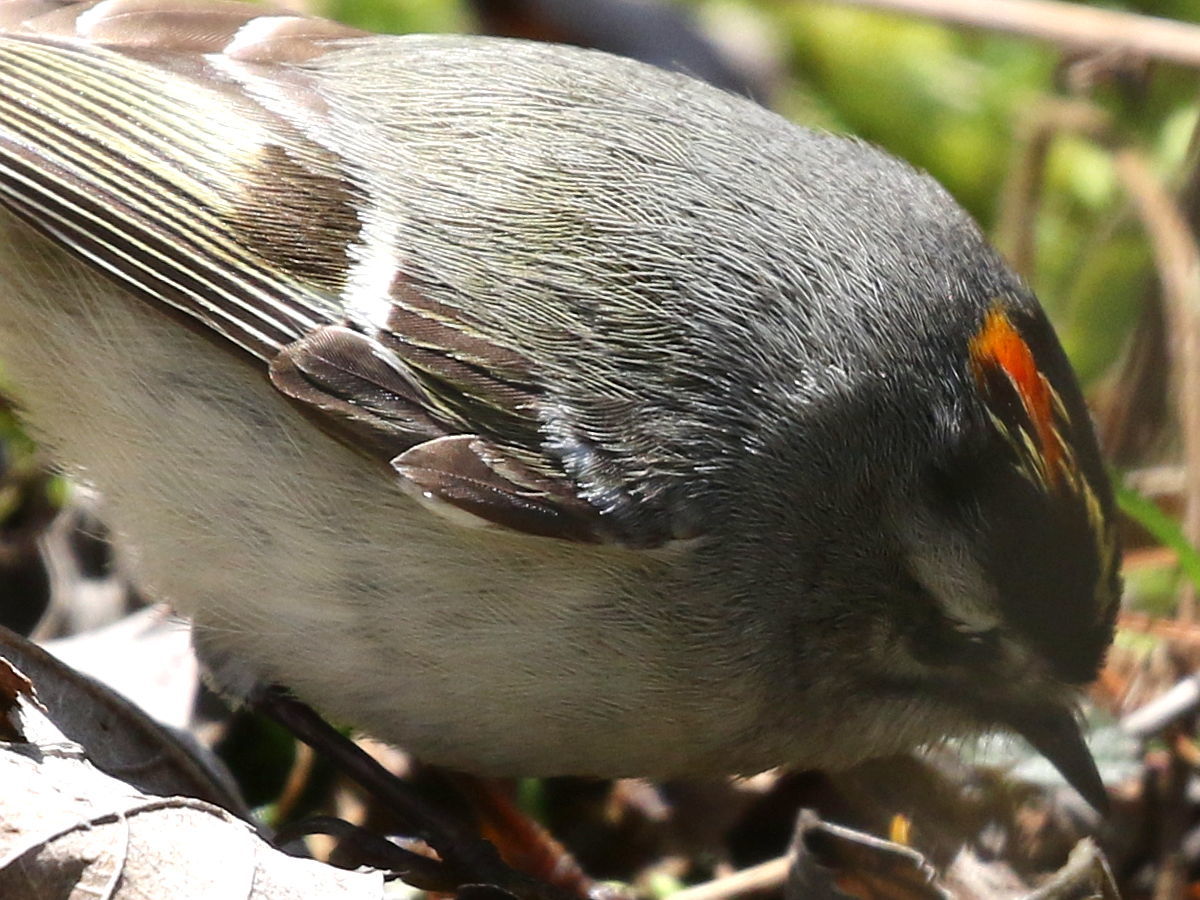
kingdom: Animalia
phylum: Chordata
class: Aves
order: Passeriformes
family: Regulidae
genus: Regulus
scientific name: Regulus satrapa
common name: Golden-crowned kinglet
